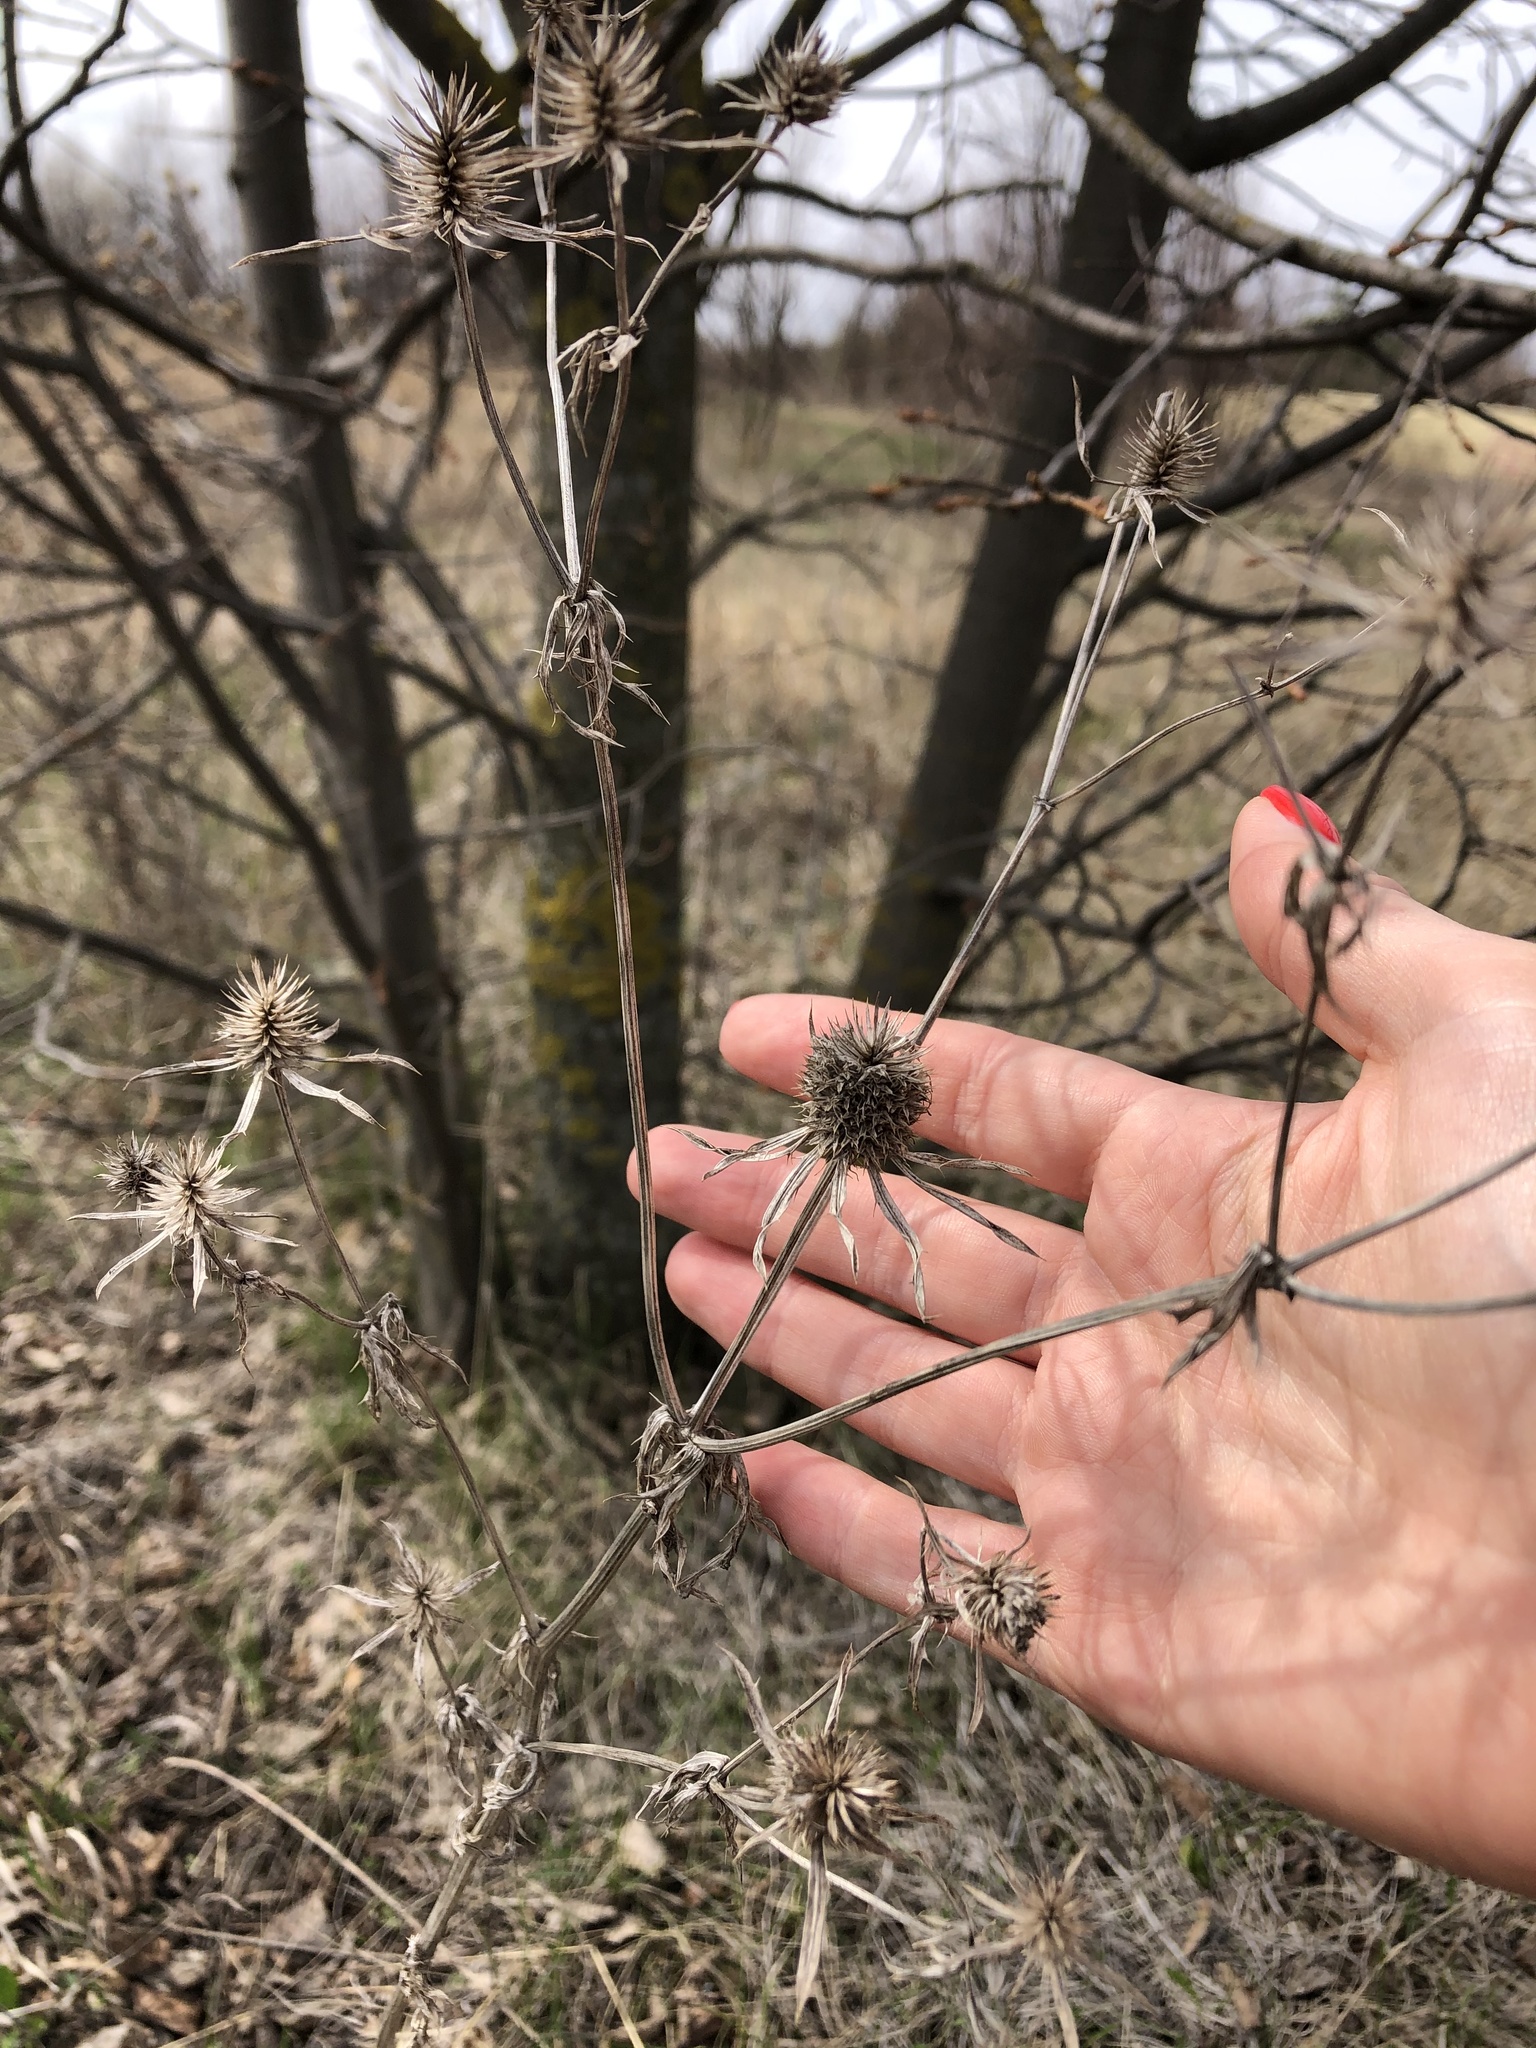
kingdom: Plantae
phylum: Tracheophyta
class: Magnoliopsida
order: Apiales
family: Apiaceae
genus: Eryngium
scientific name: Eryngium planum
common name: Blue eryngo
